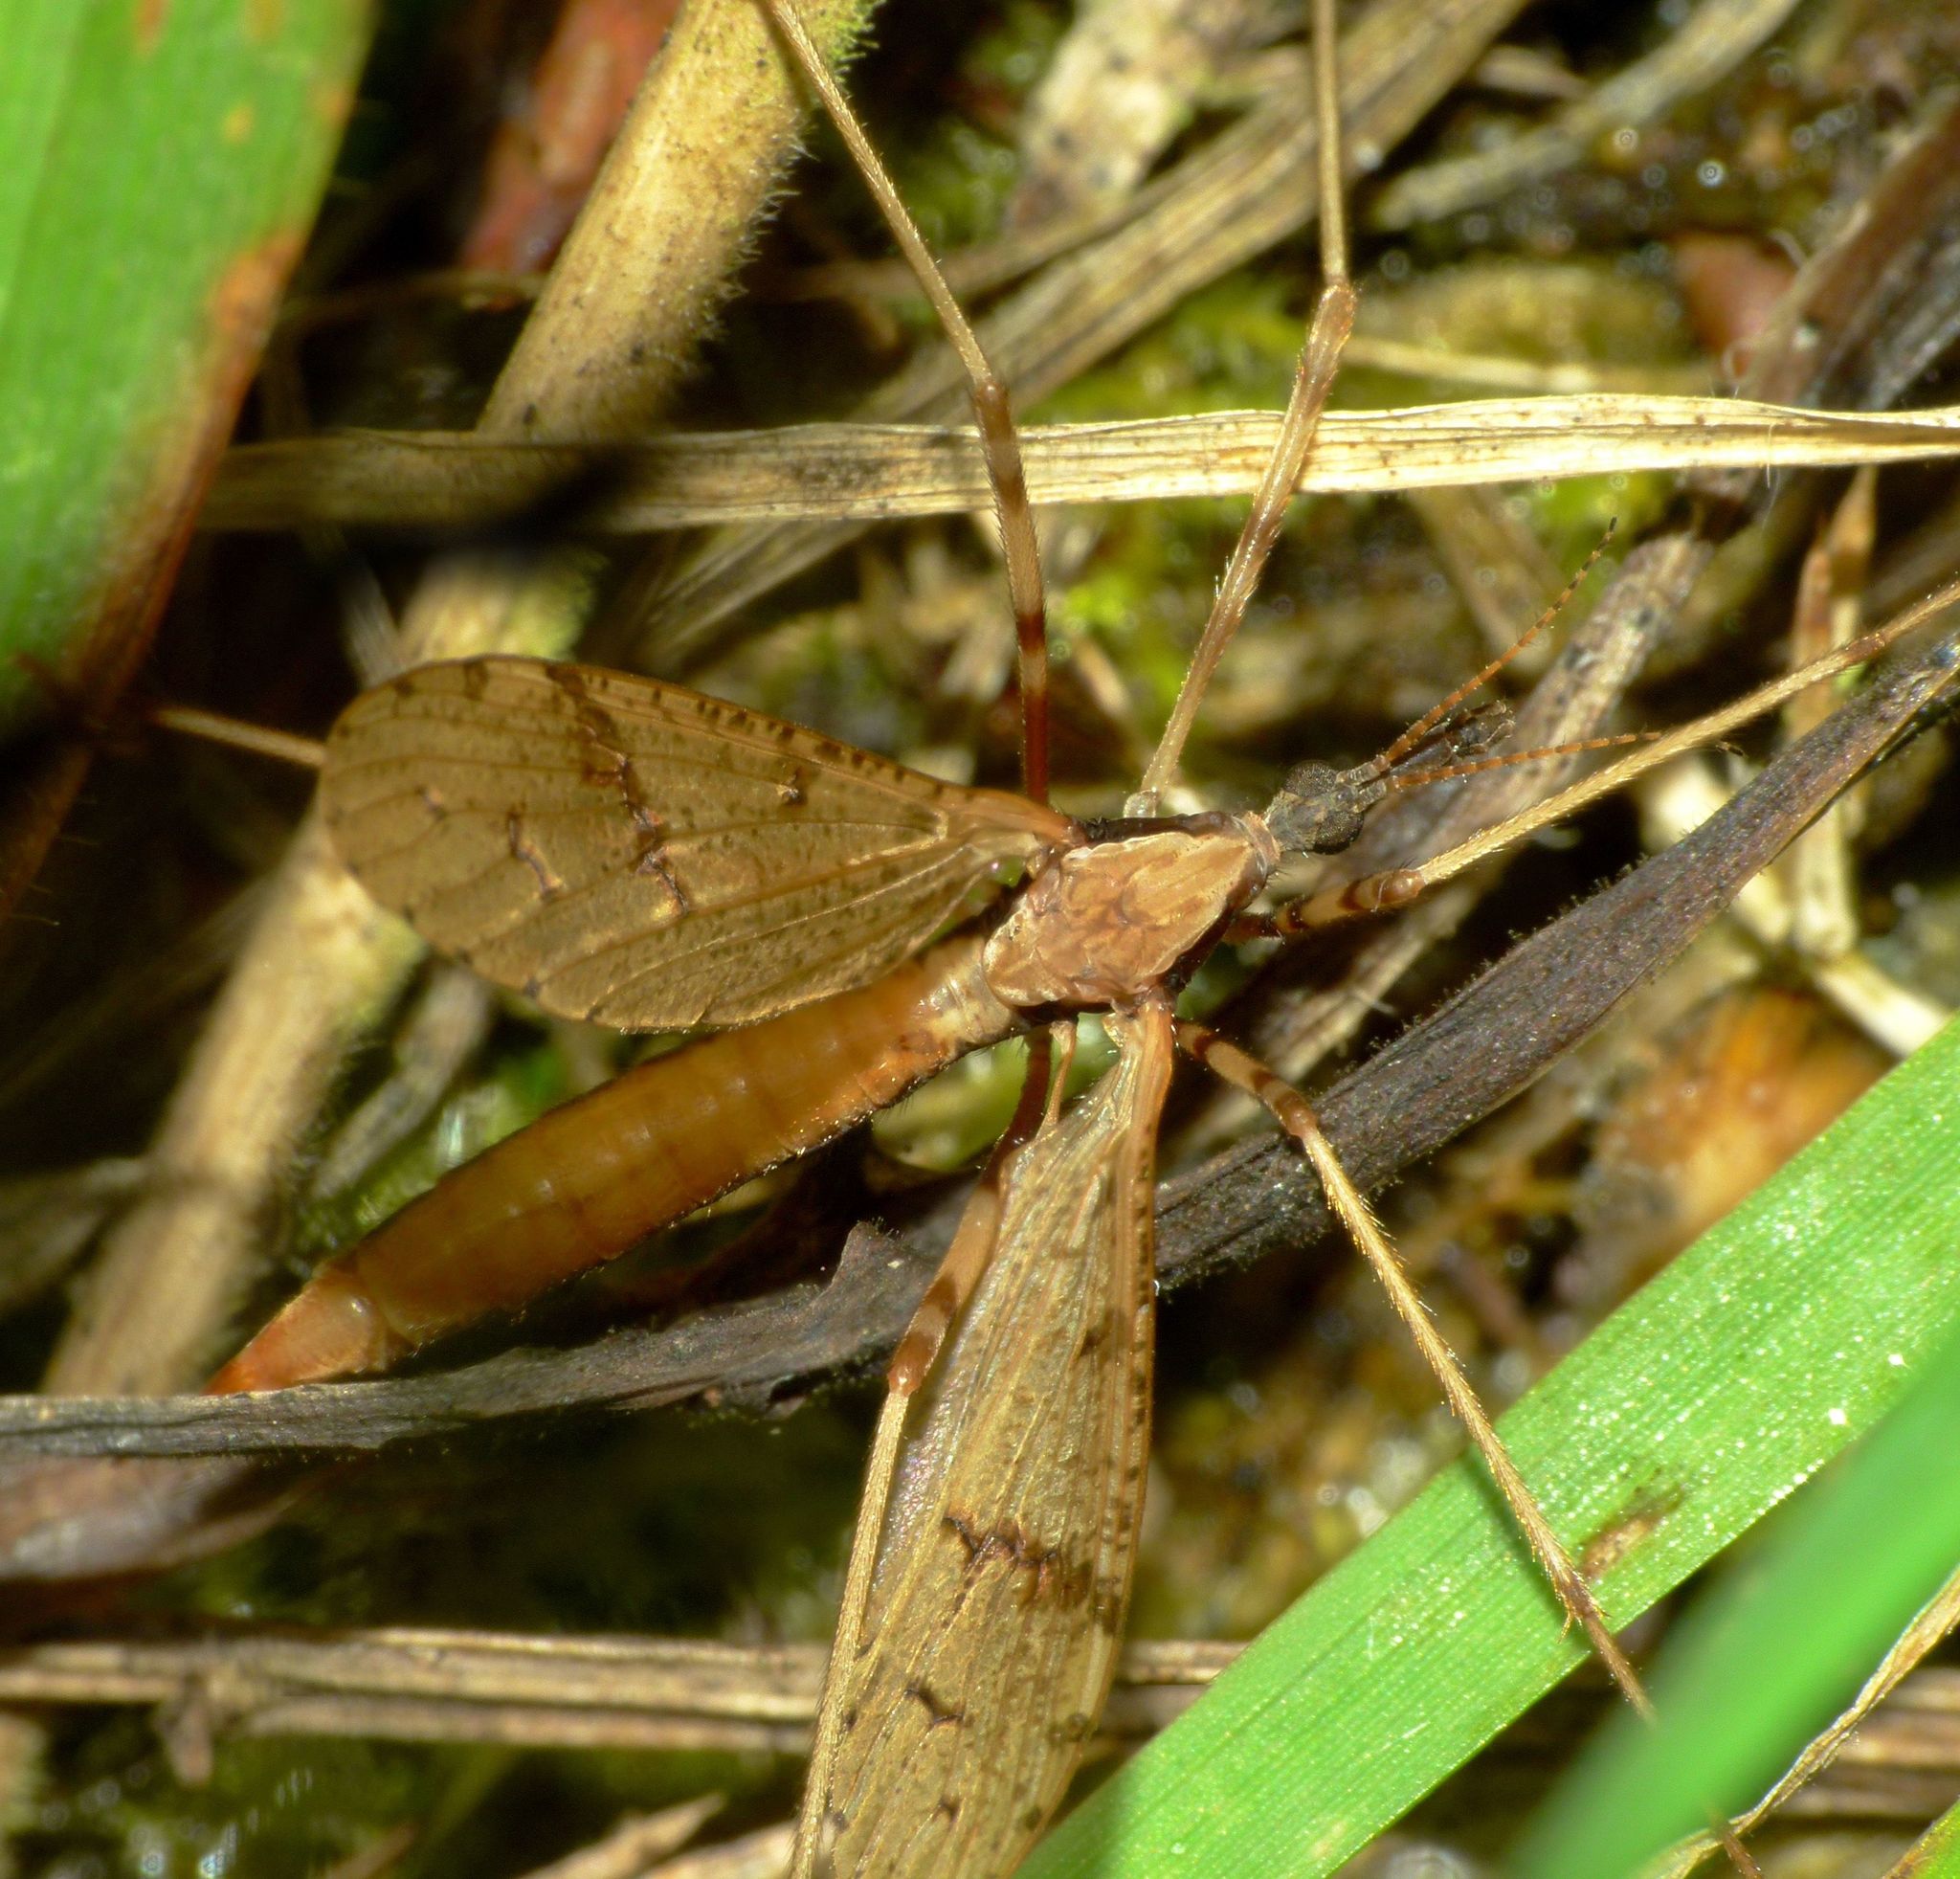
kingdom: Animalia
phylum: Arthropoda
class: Insecta
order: Diptera
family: Limoniidae
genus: Rhamphophila
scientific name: Rhamphophila sinistra
